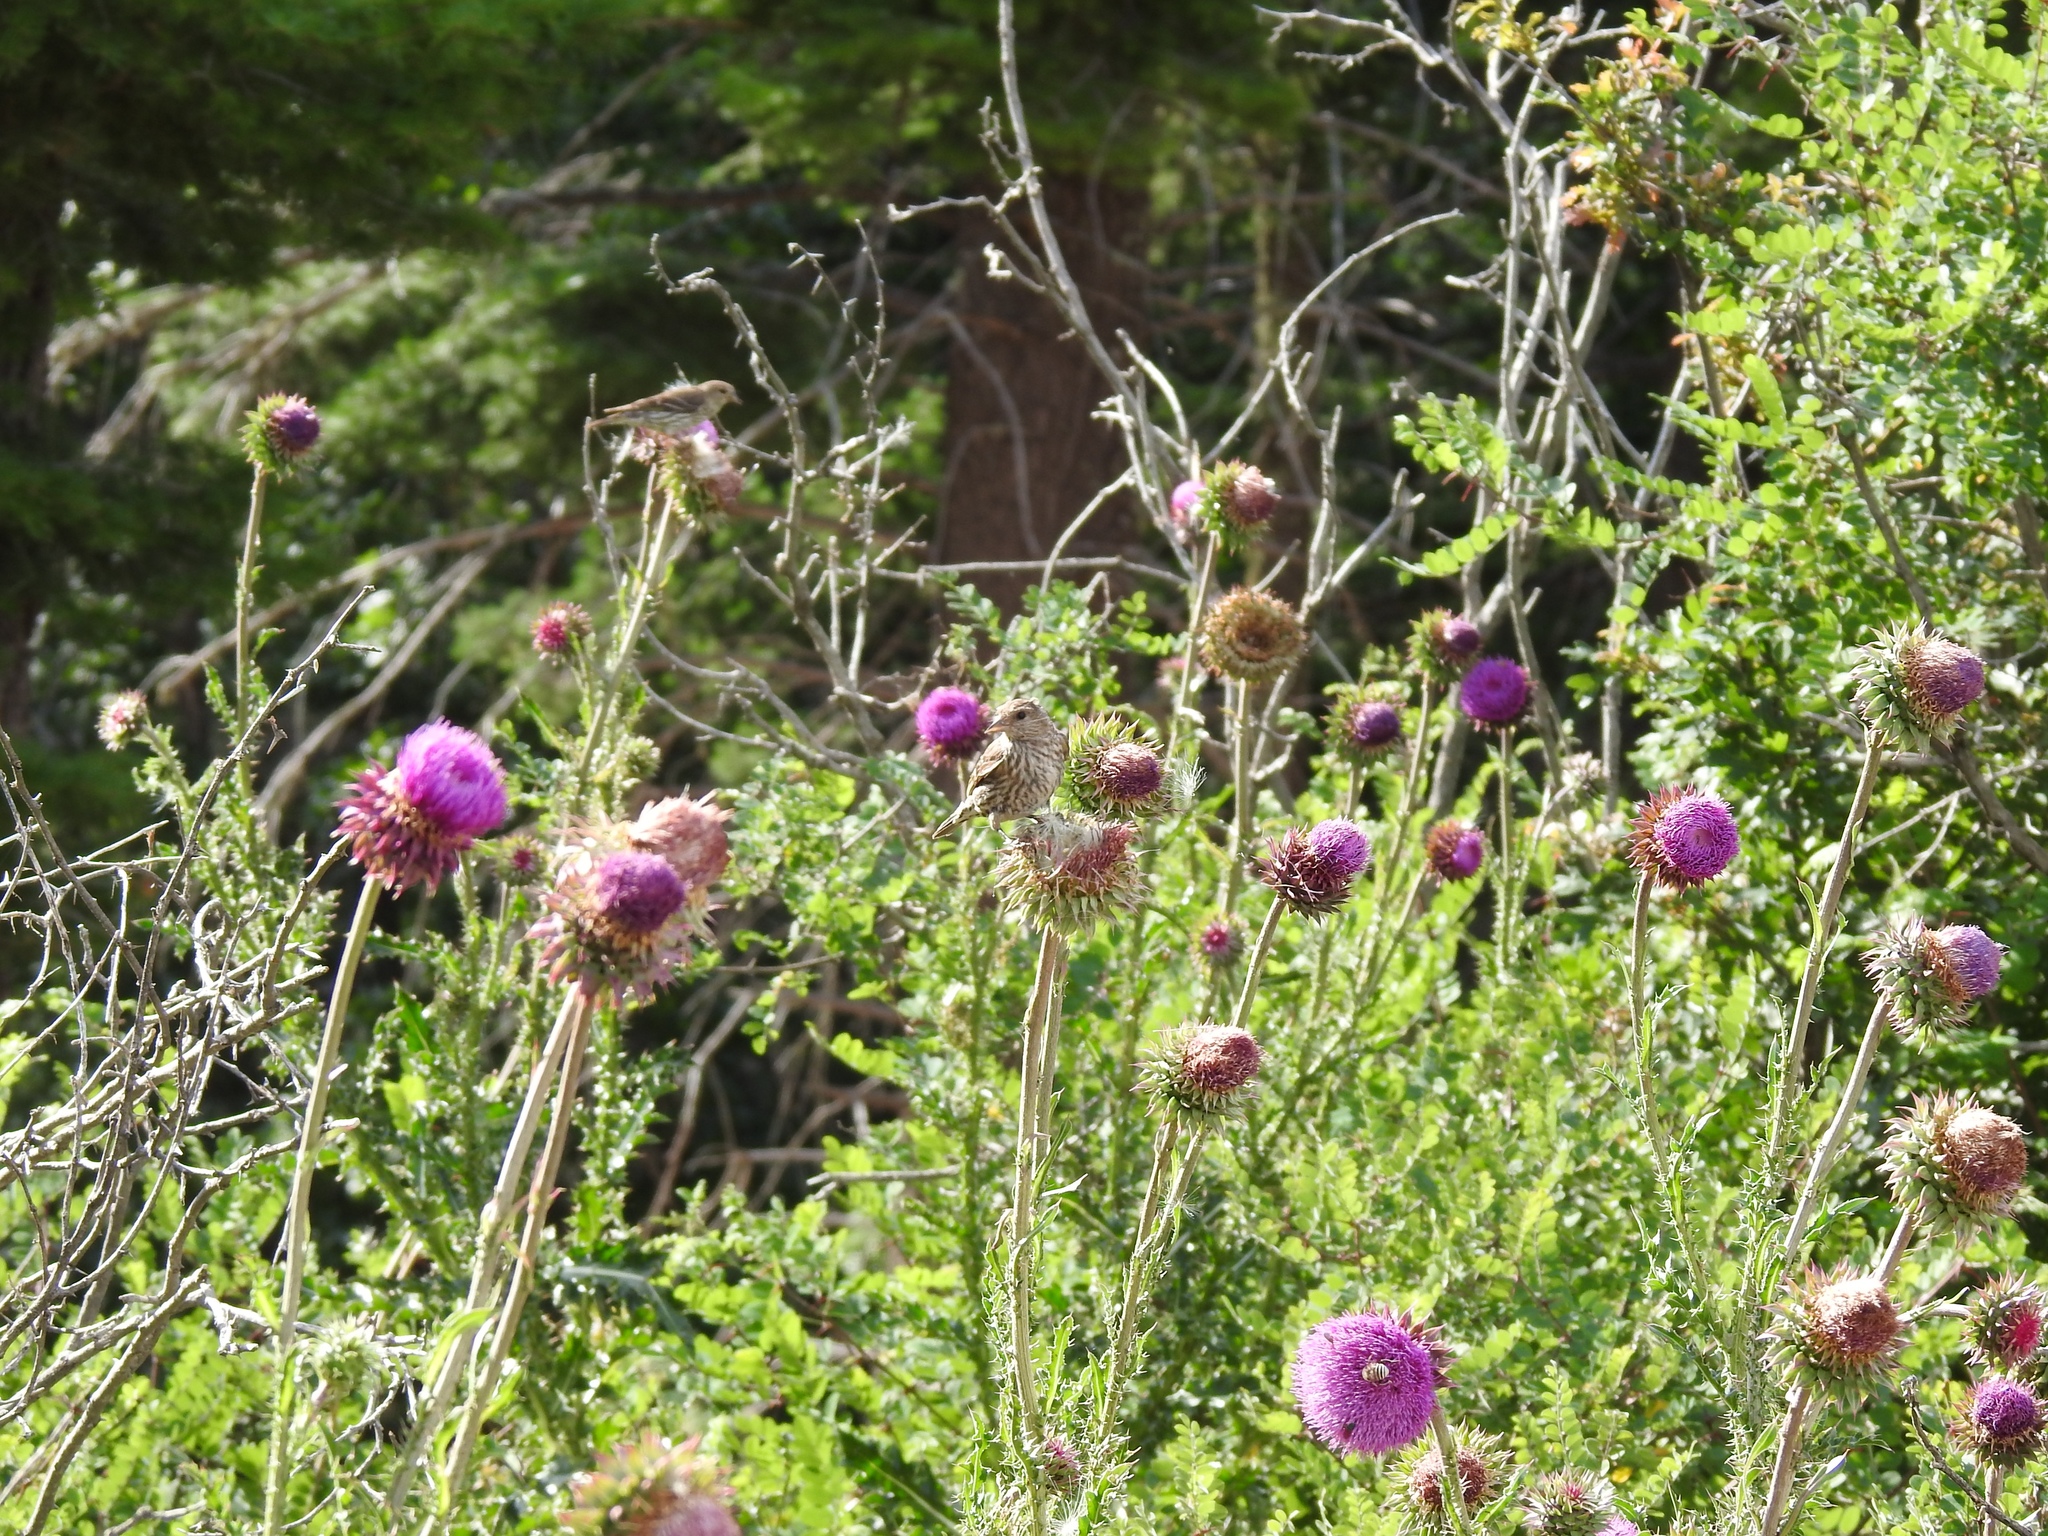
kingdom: Animalia
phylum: Chordata
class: Aves
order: Passeriformes
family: Fringillidae
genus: Spinus
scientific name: Spinus pinus
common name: Pine siskin
